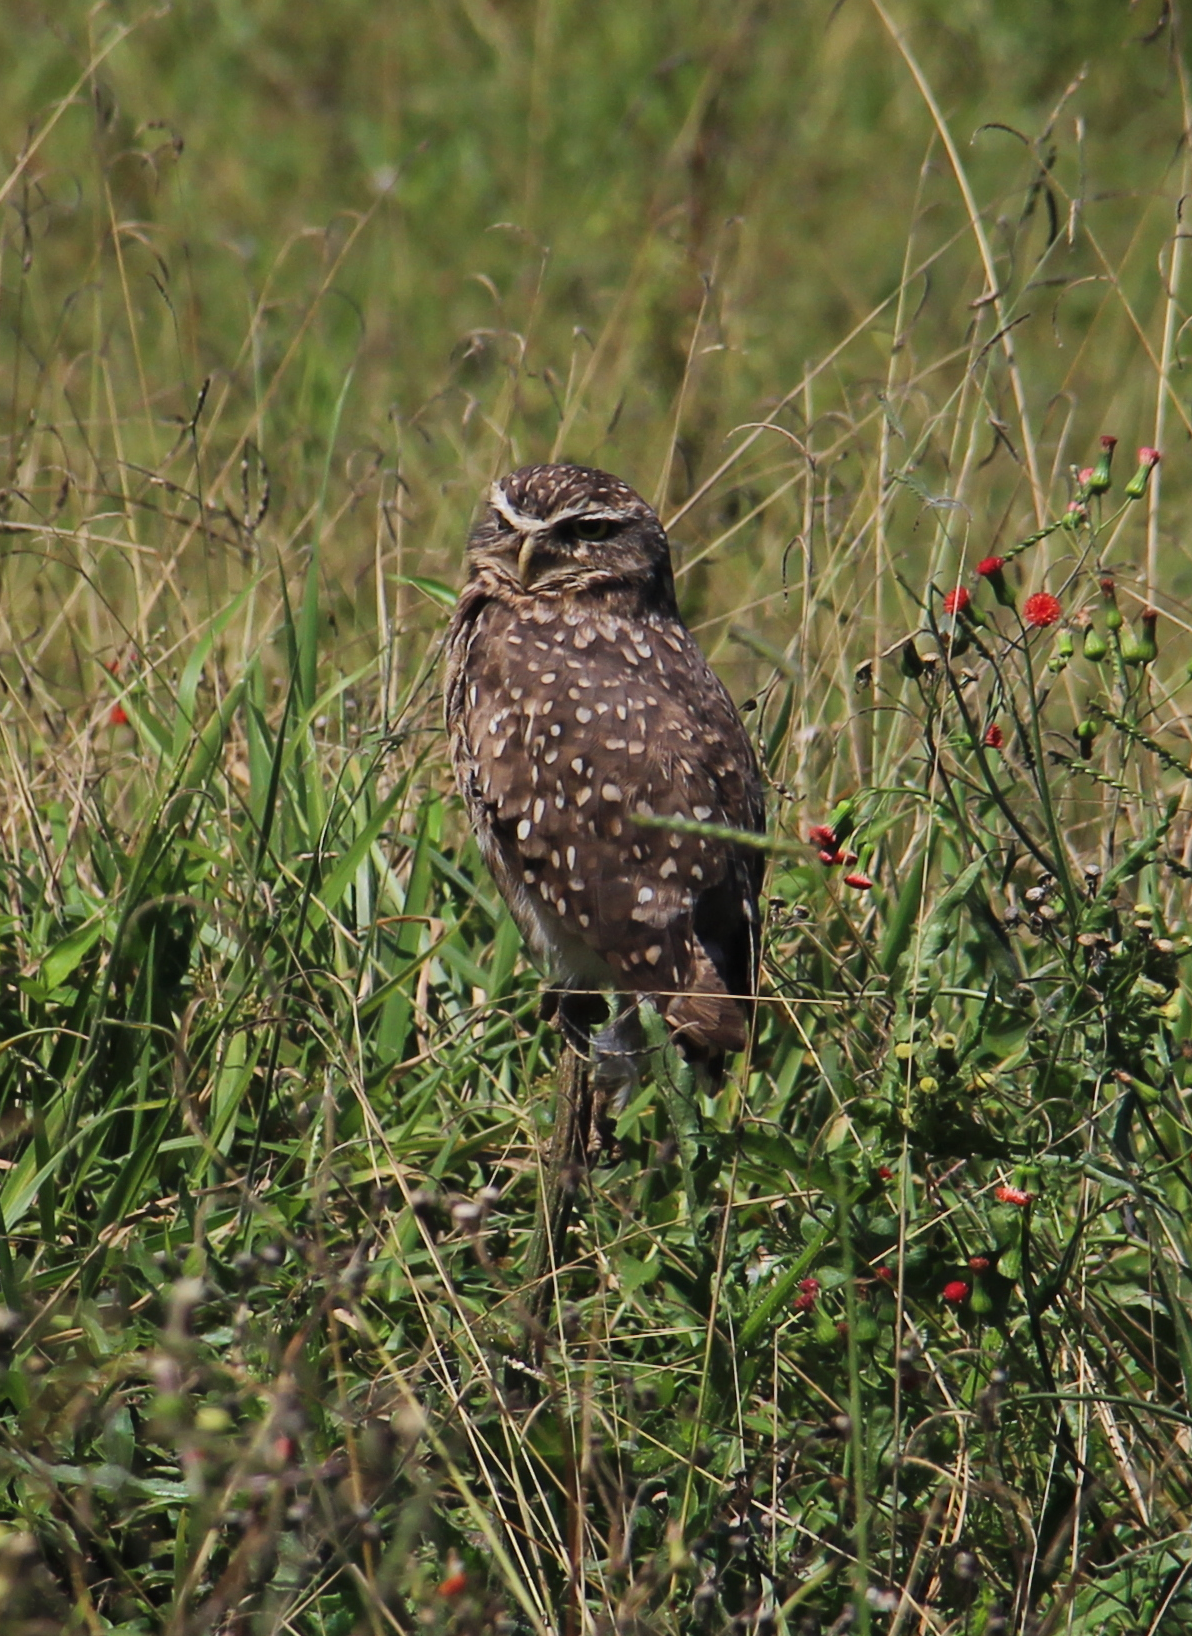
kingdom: Animalia
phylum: Chordata
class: Aves
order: Strigiformes
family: Strigidae
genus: Athene
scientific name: Athene cunicularia
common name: Burrowing owl
